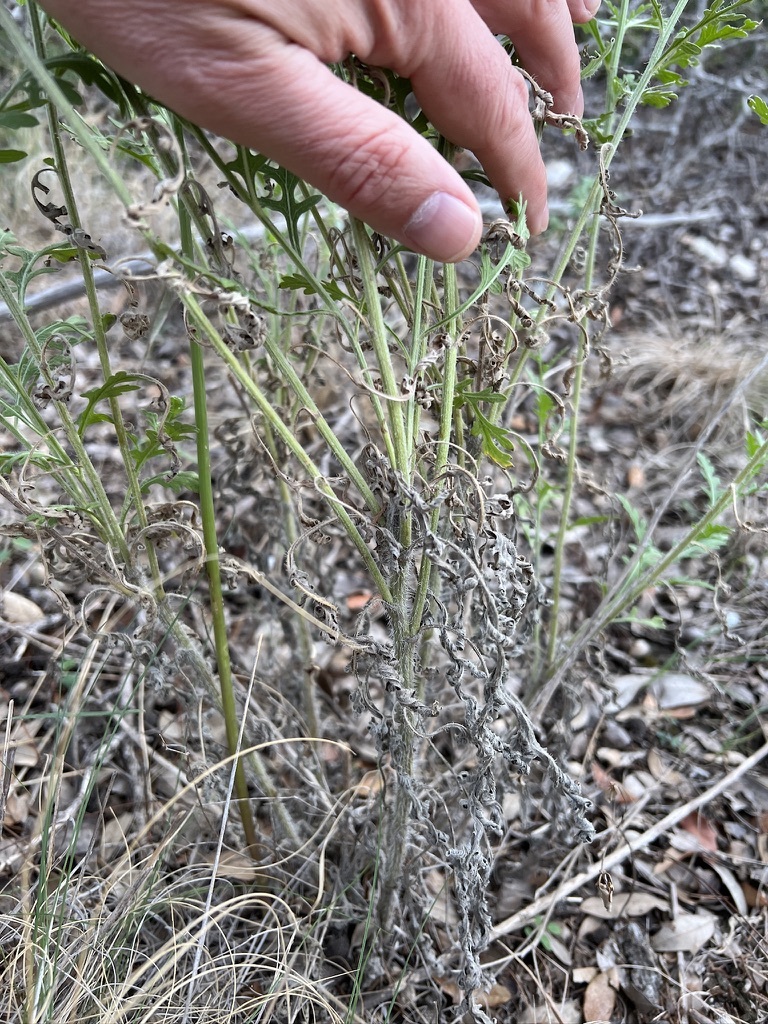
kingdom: Plantae
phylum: Tracheophyta
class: Magnoliopsida
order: Asterales
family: Asteraceae
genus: Parthenium
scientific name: Parthenium hysterophorus
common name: Santa maria feverfew
